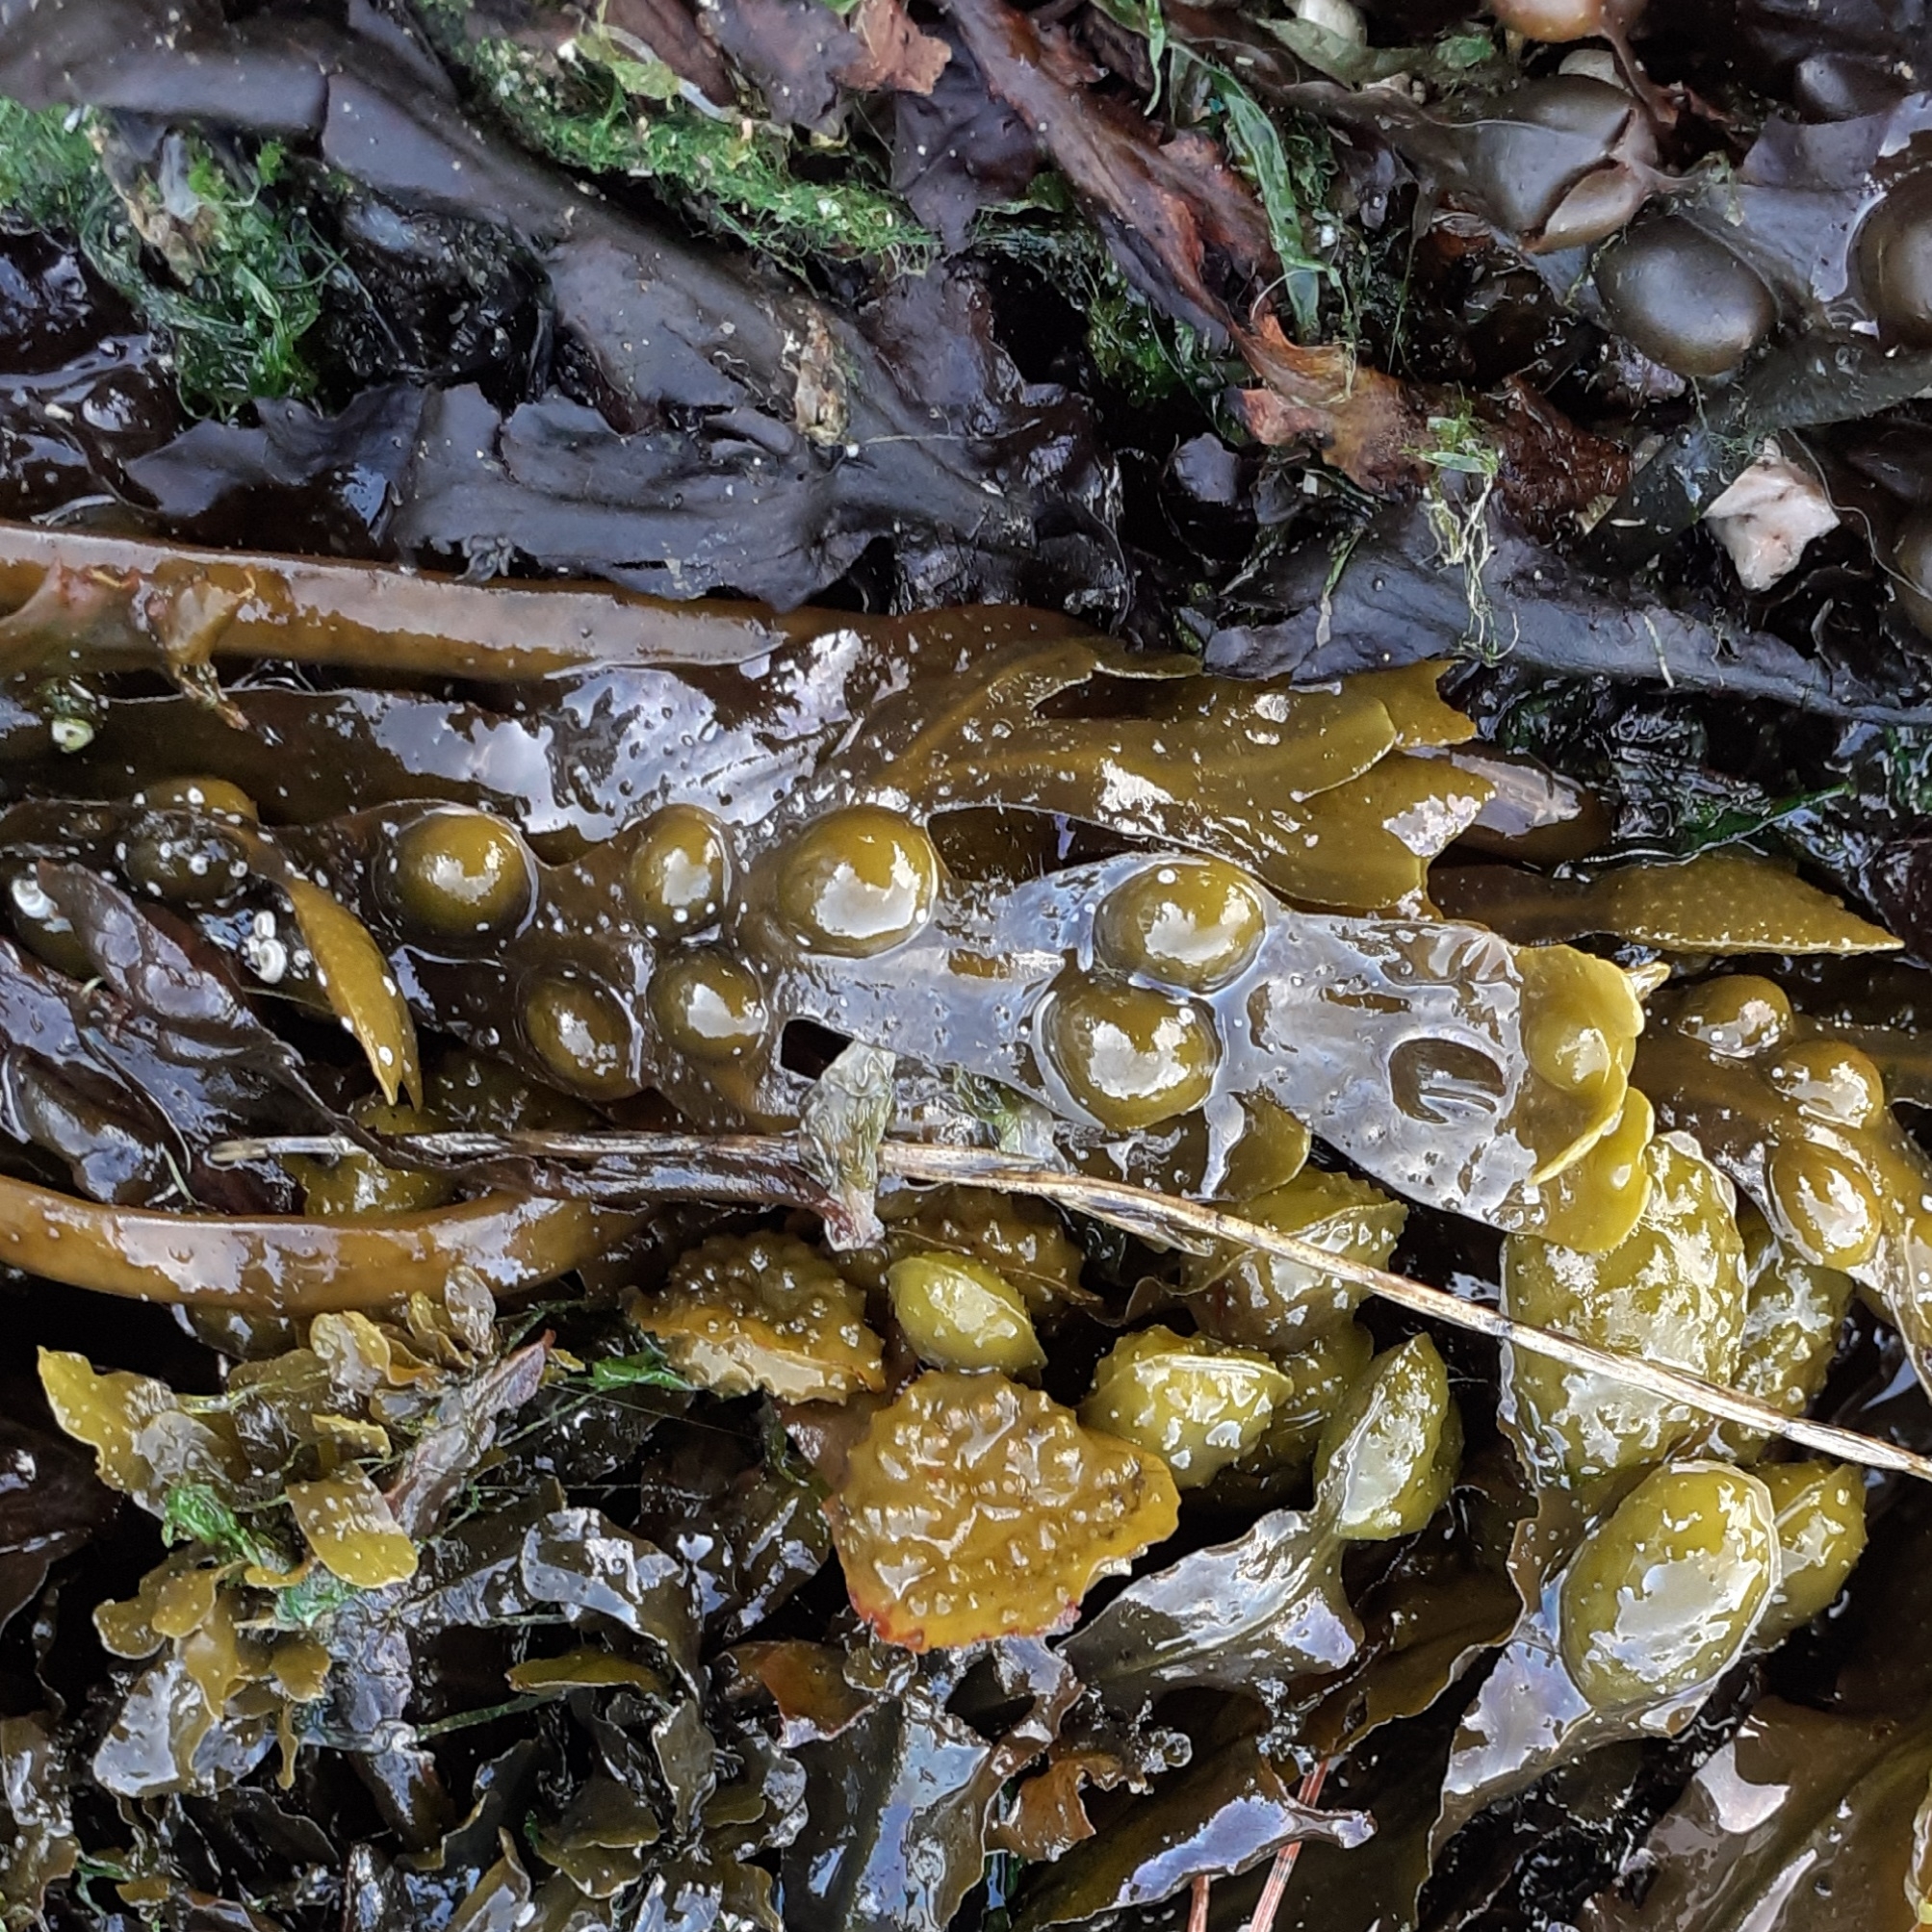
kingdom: Chromista
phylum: Ochrophyta
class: Phaeophyceae
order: Fucales
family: Fucaceae
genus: Fucus
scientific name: Fucus vesiculosus
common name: Bladder wrack
